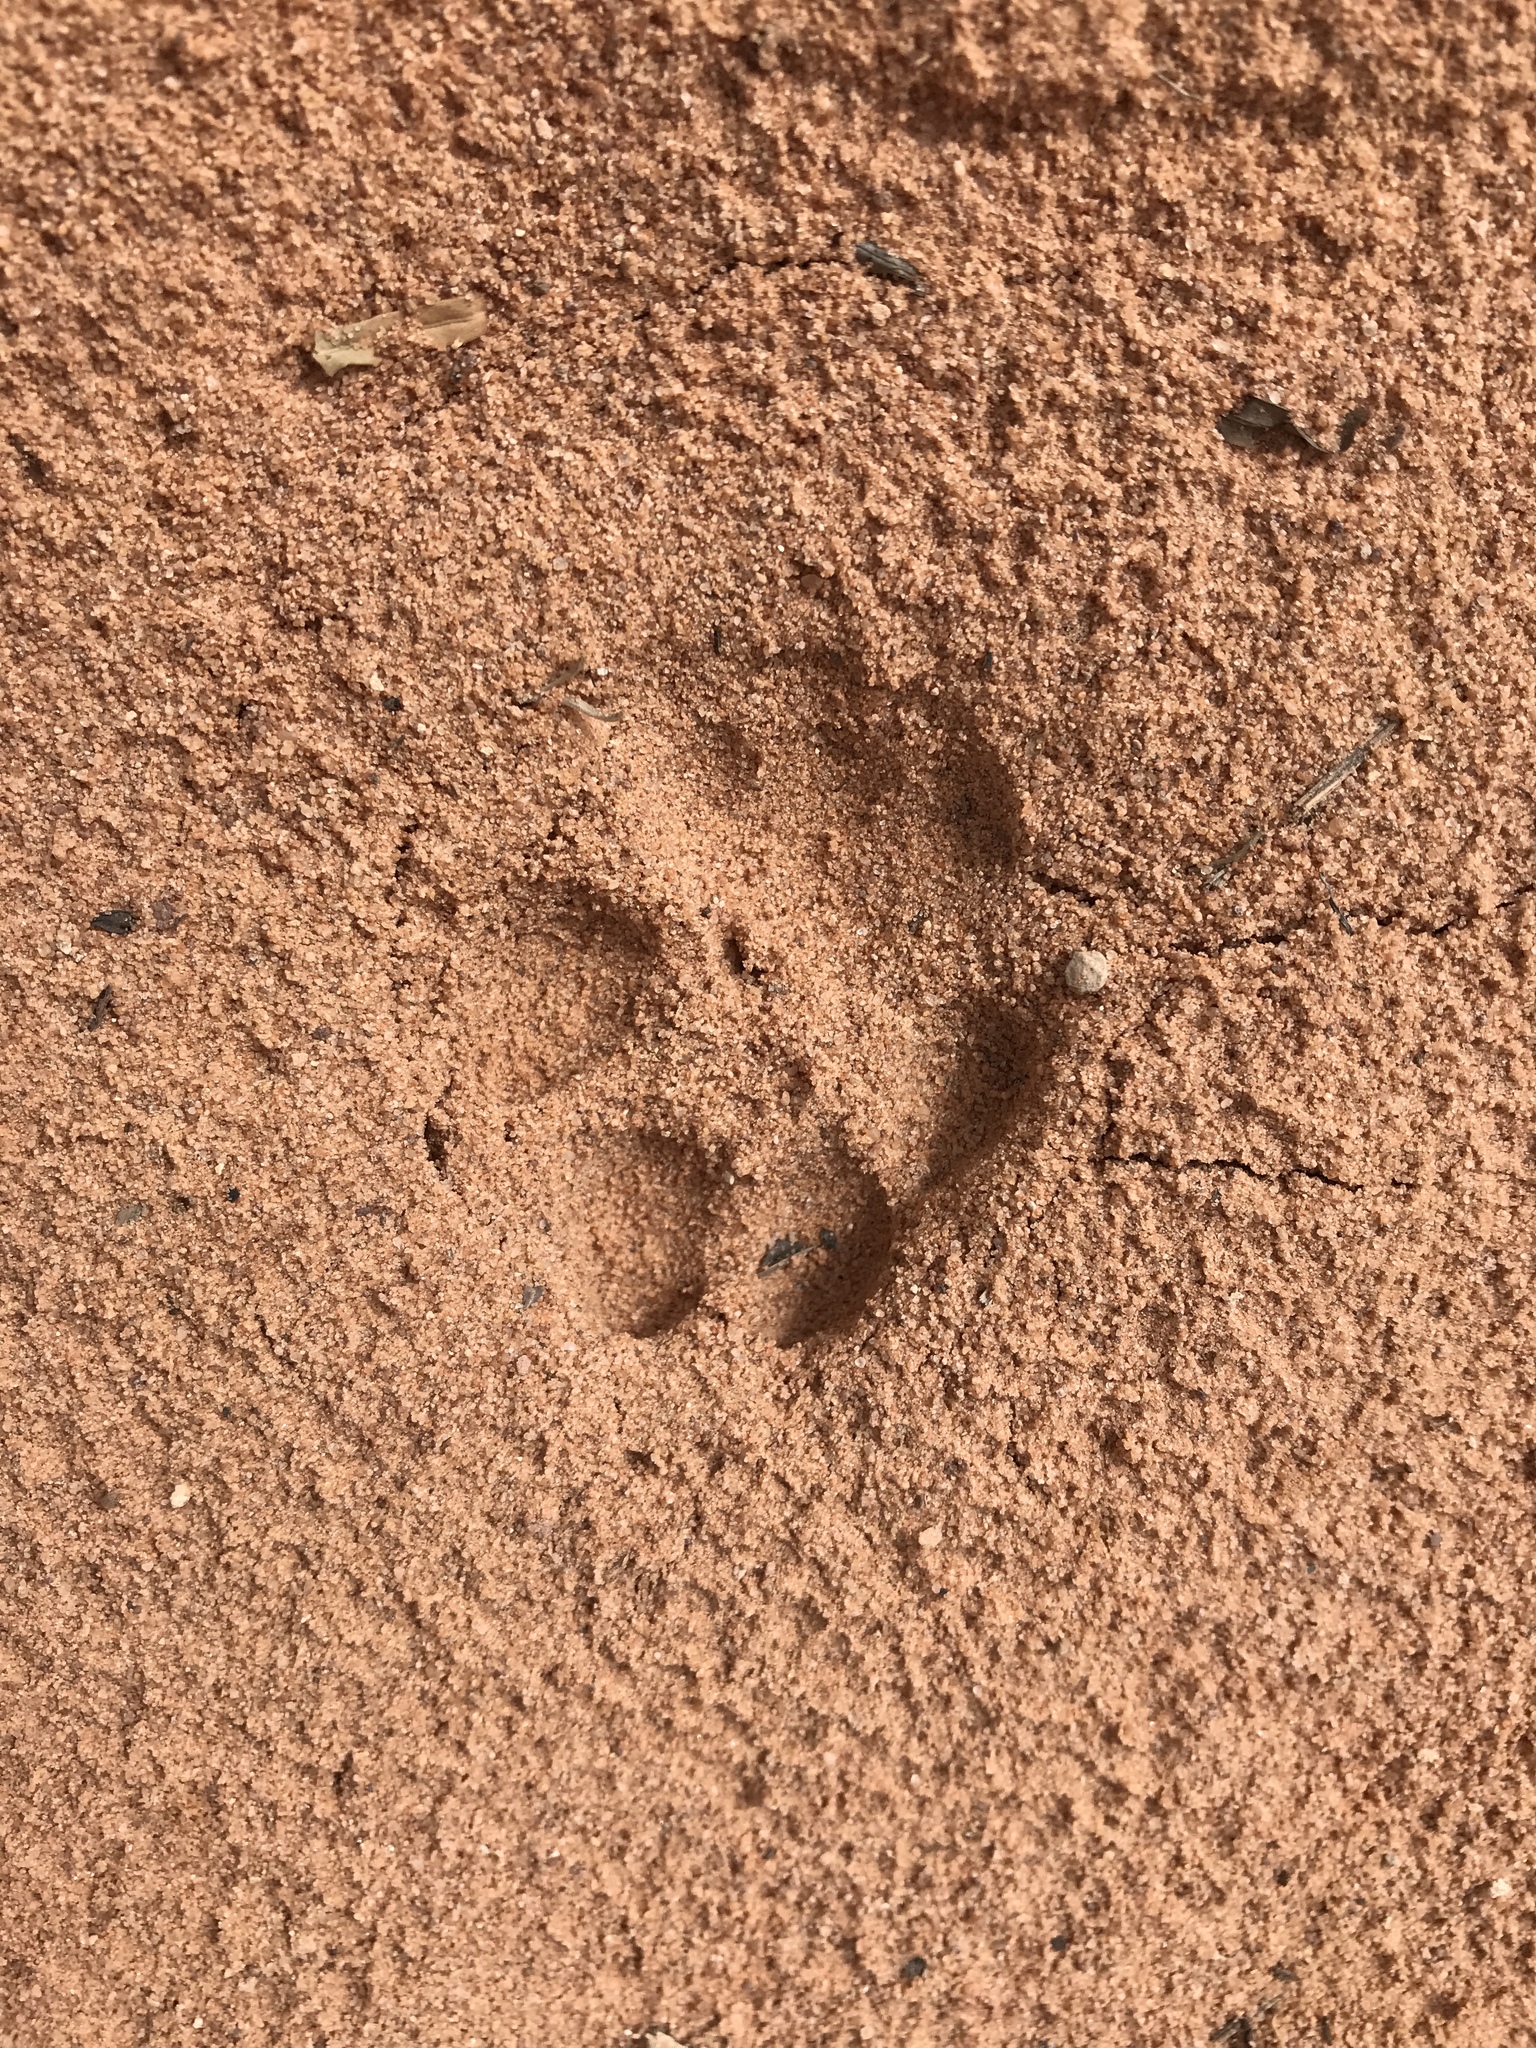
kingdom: Animalia
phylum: Chordata
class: Mammalia
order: Carnivora
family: Canidae
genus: Urocyon
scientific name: Urocyon cinereoargenteus
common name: Gray fox
